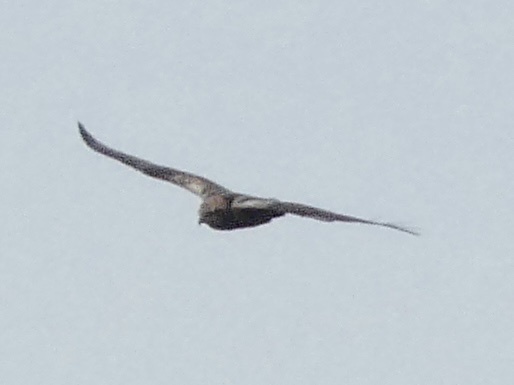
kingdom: Animalia
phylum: Chordata
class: Aves
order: Accipitriformes
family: Accipitridae
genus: Circus
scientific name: Circus aeruginosus
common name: Western marsh harrier
